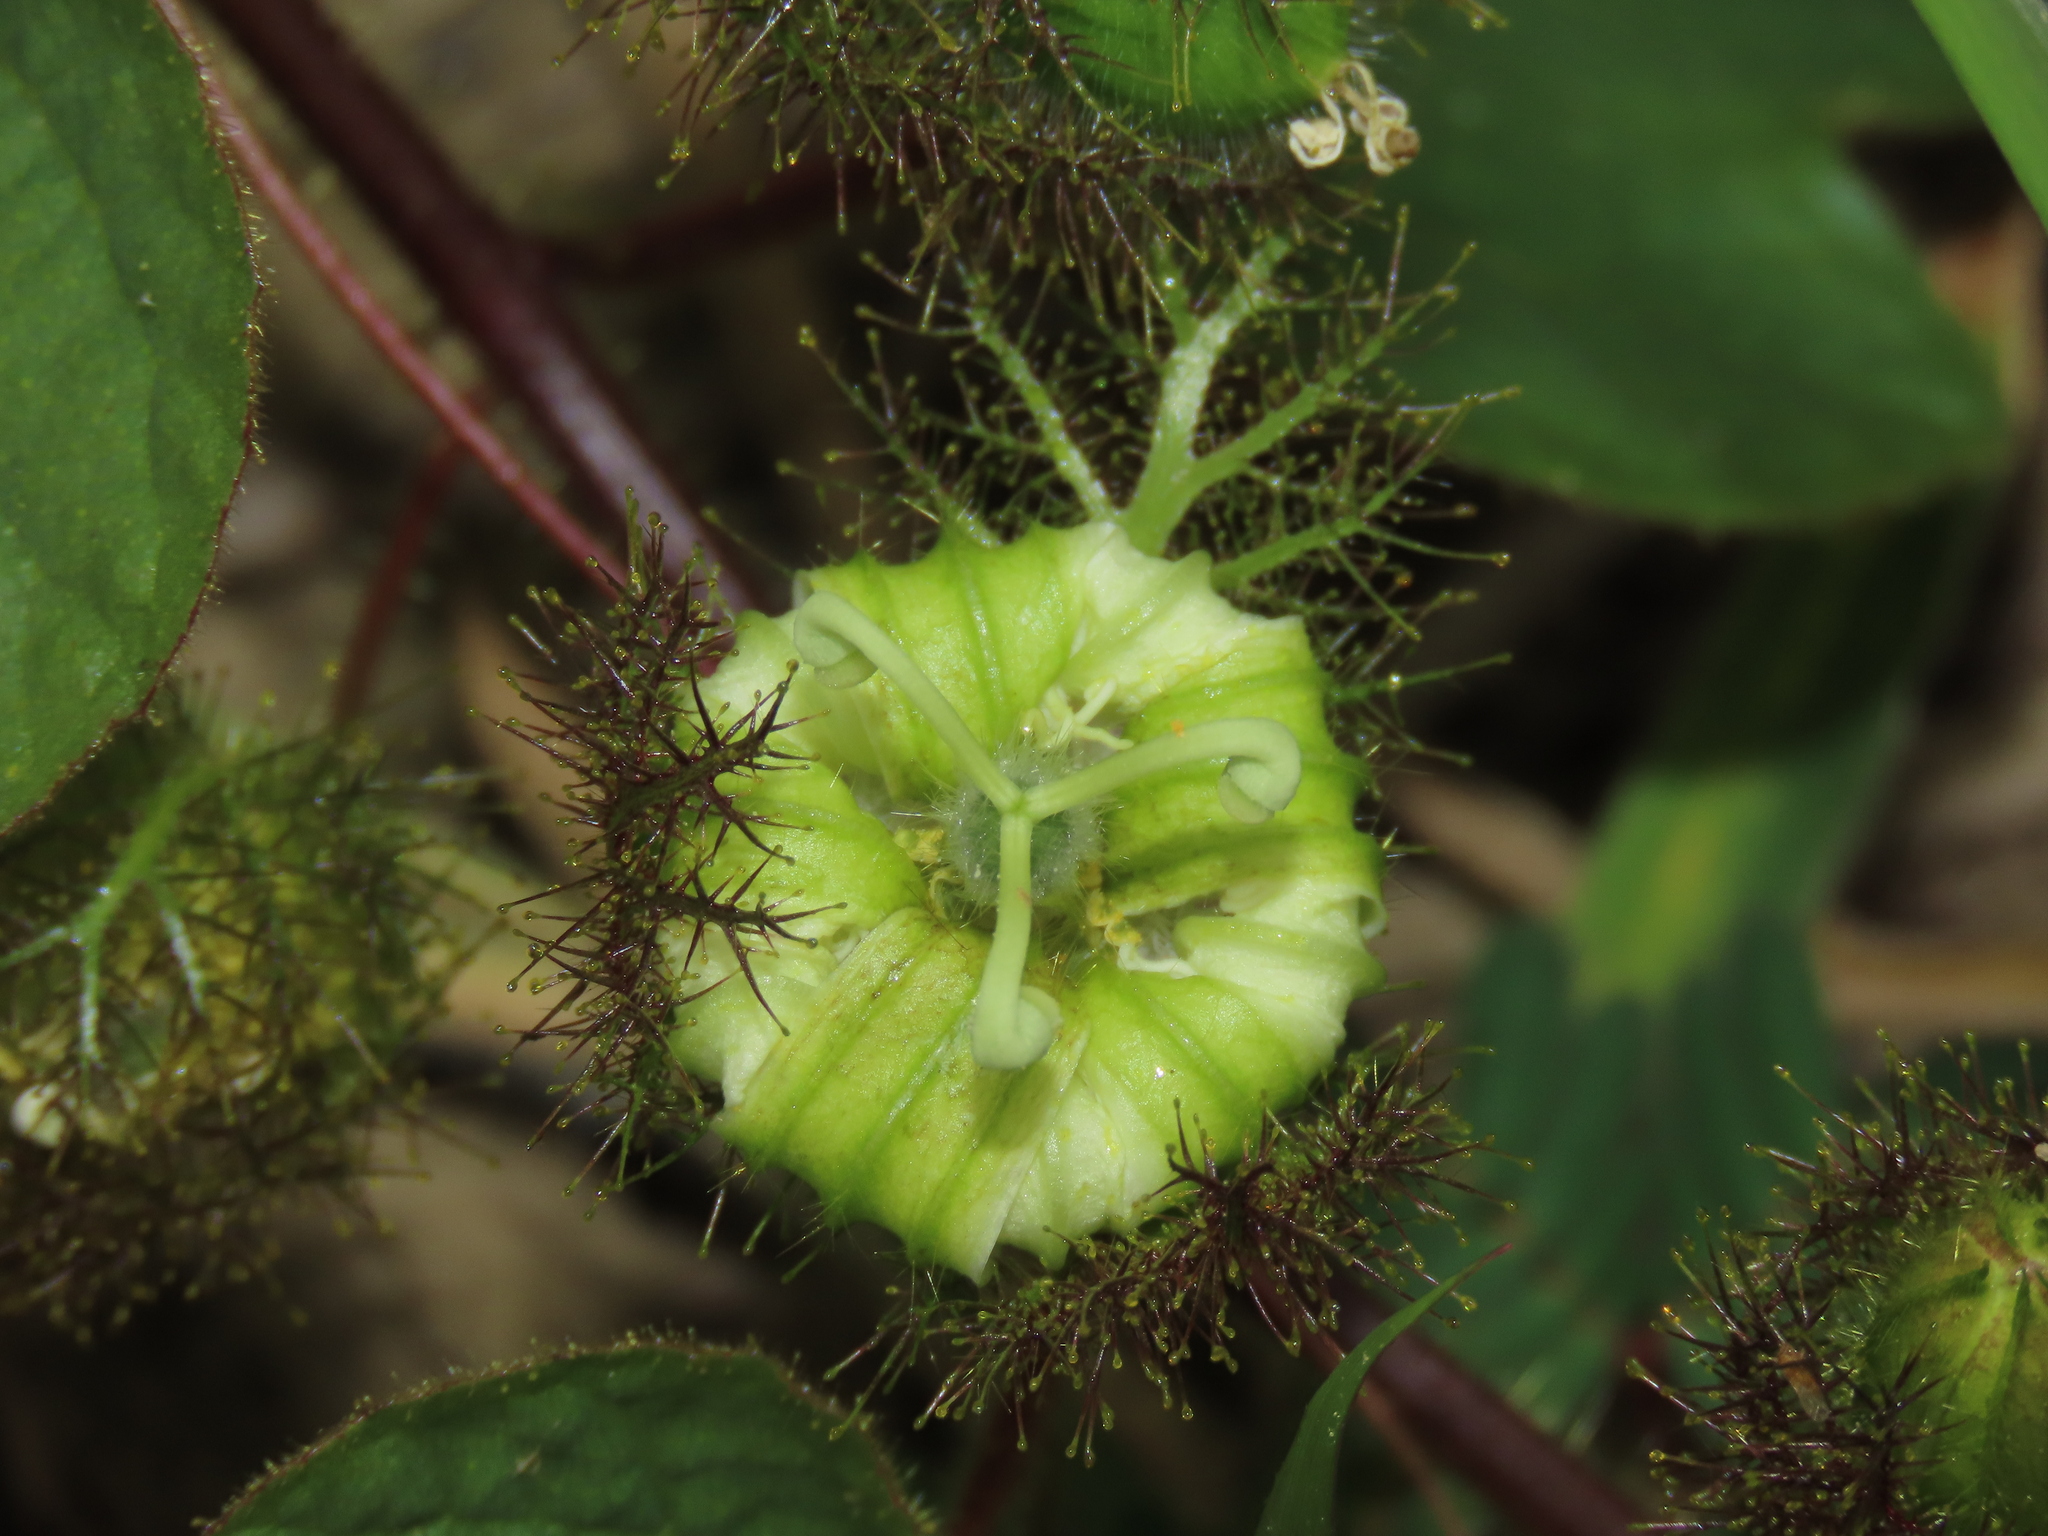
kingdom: Plantae
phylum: Tracheophyta
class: Magnoliopsida
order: Malpighiales
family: Passifloraceae
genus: Passiflora
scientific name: Passiflora foetida
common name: Fetid passionflower
